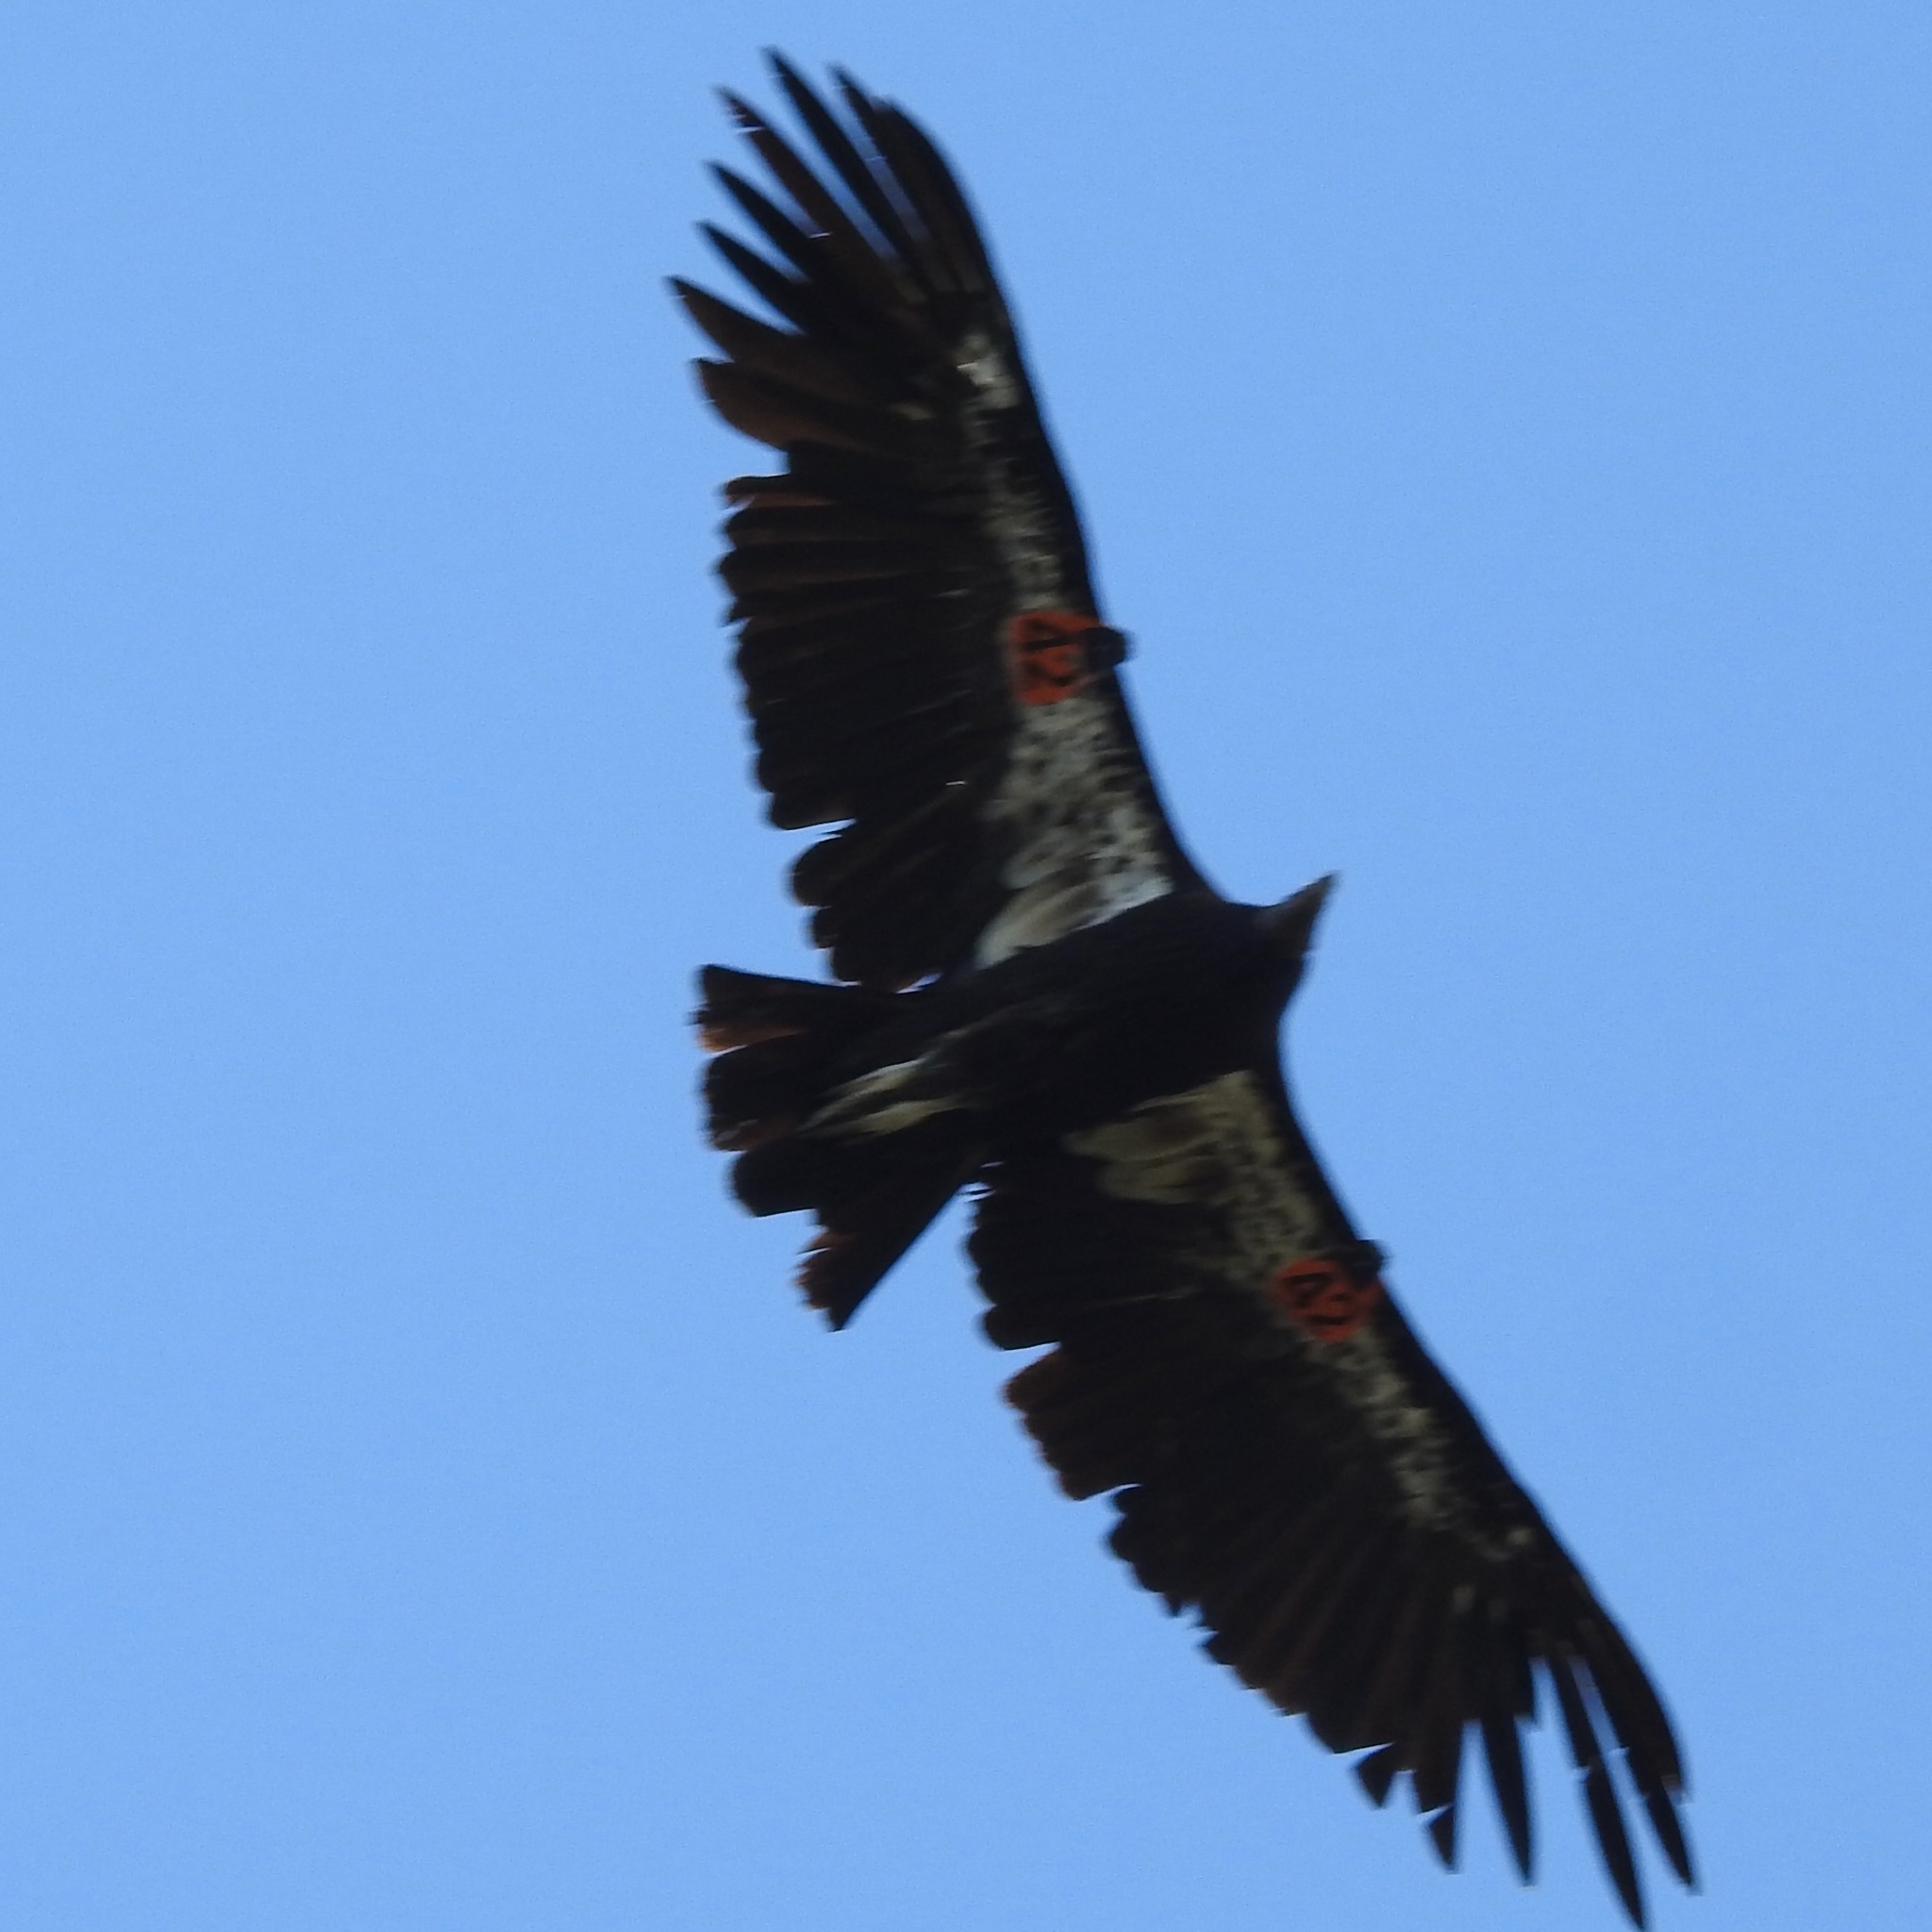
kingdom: Animalia
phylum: Chordata
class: Aves
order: Accipitriformes
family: Cathartidae
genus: Gymnogyps
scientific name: Gymnogyps californianus
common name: California condor
